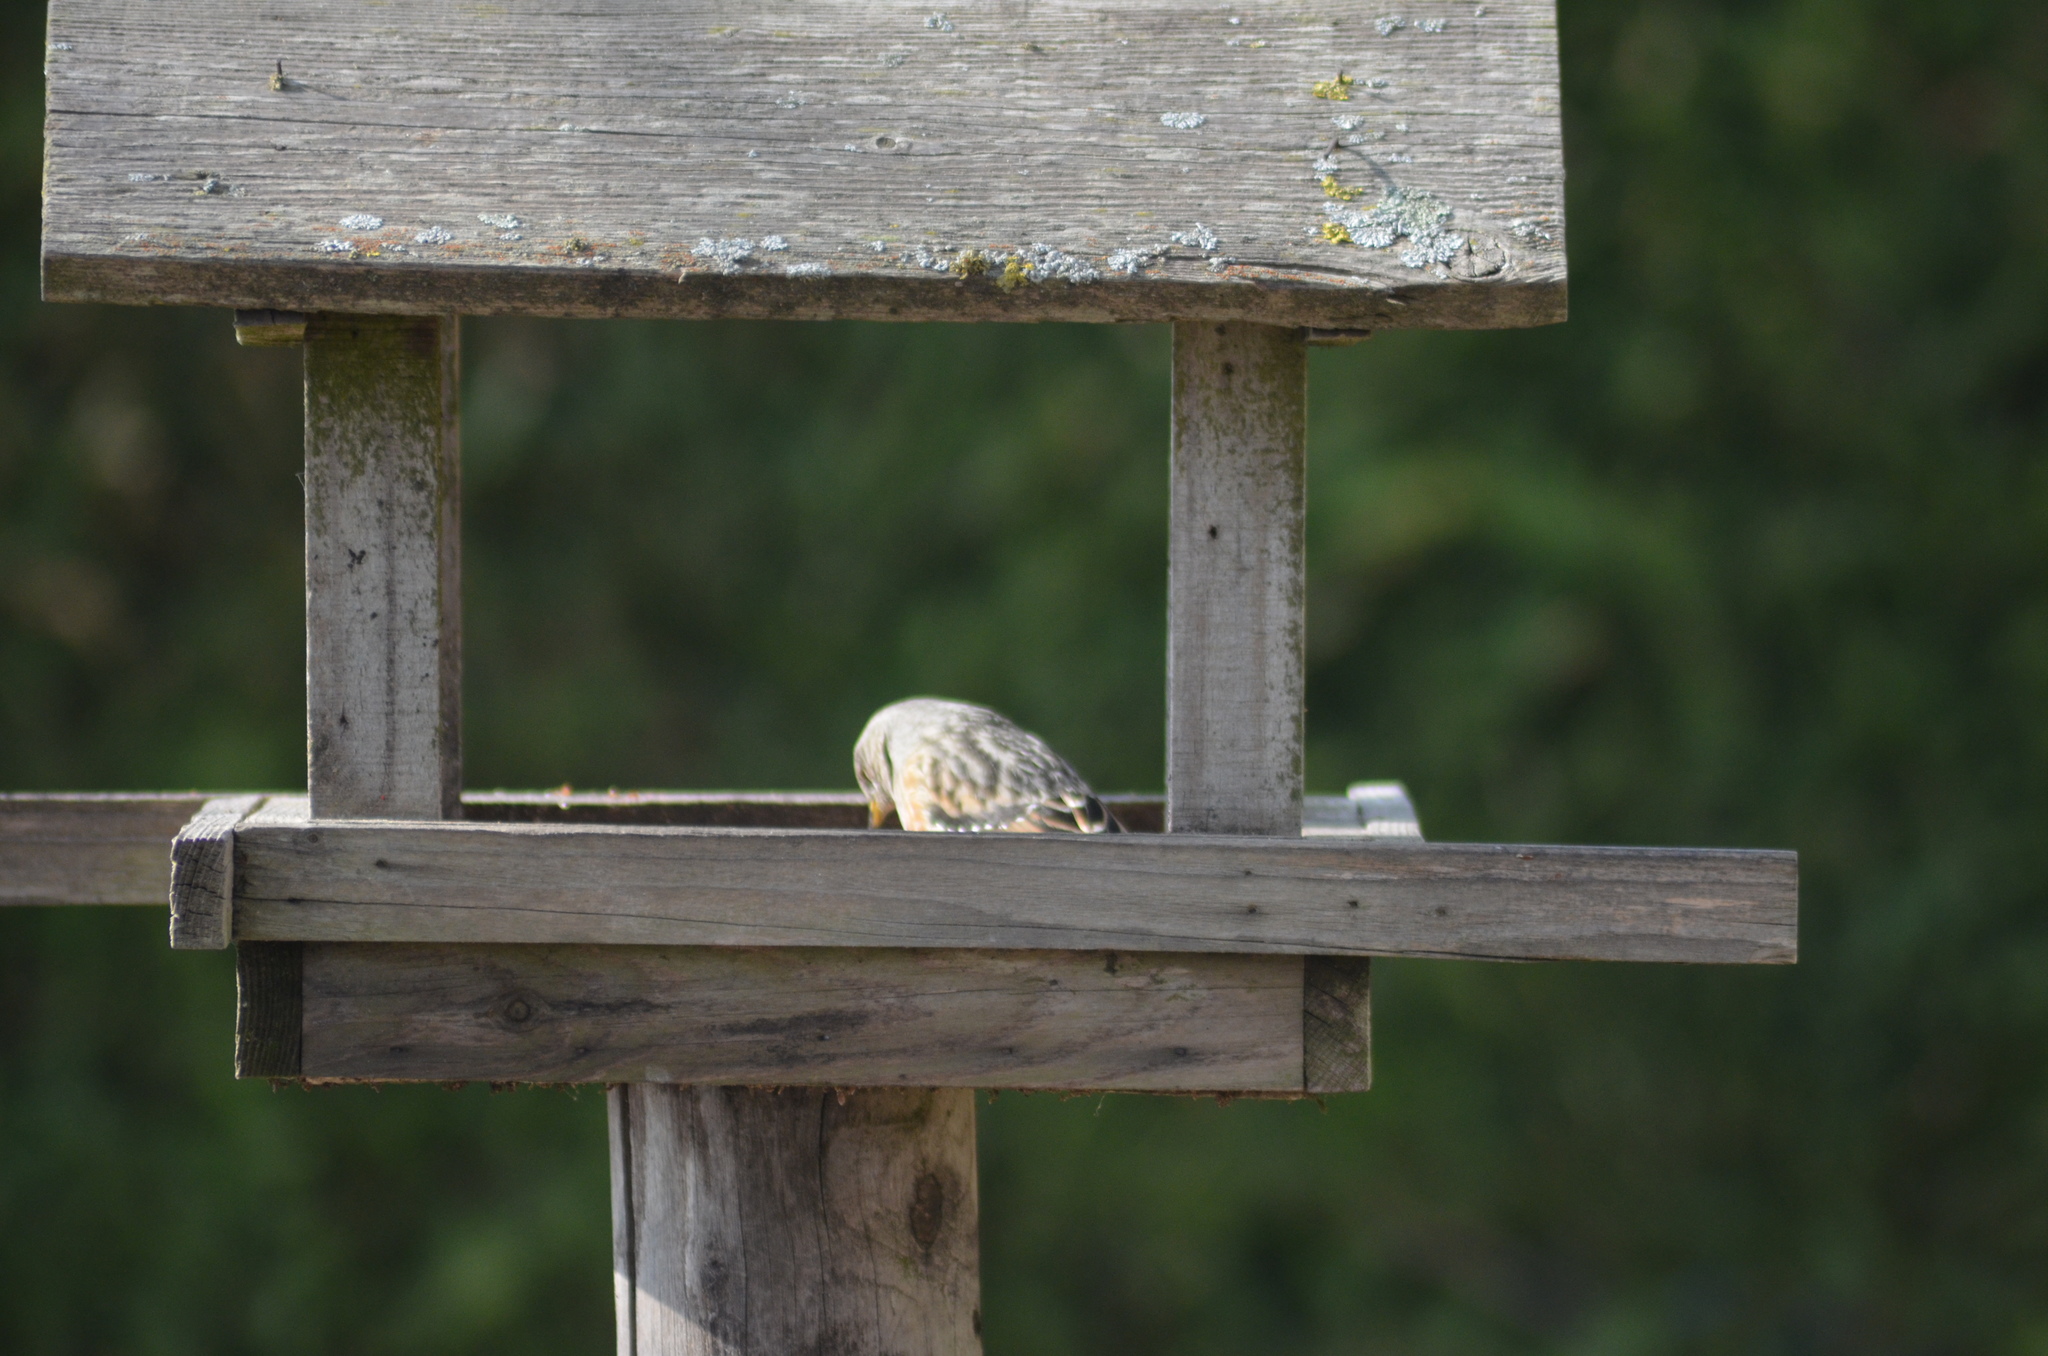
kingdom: Animalia
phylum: Chordata
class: Aves
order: Passeriformes
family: Prunellidae
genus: Prunella
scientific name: Prunella collaris
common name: Alpine accentor
